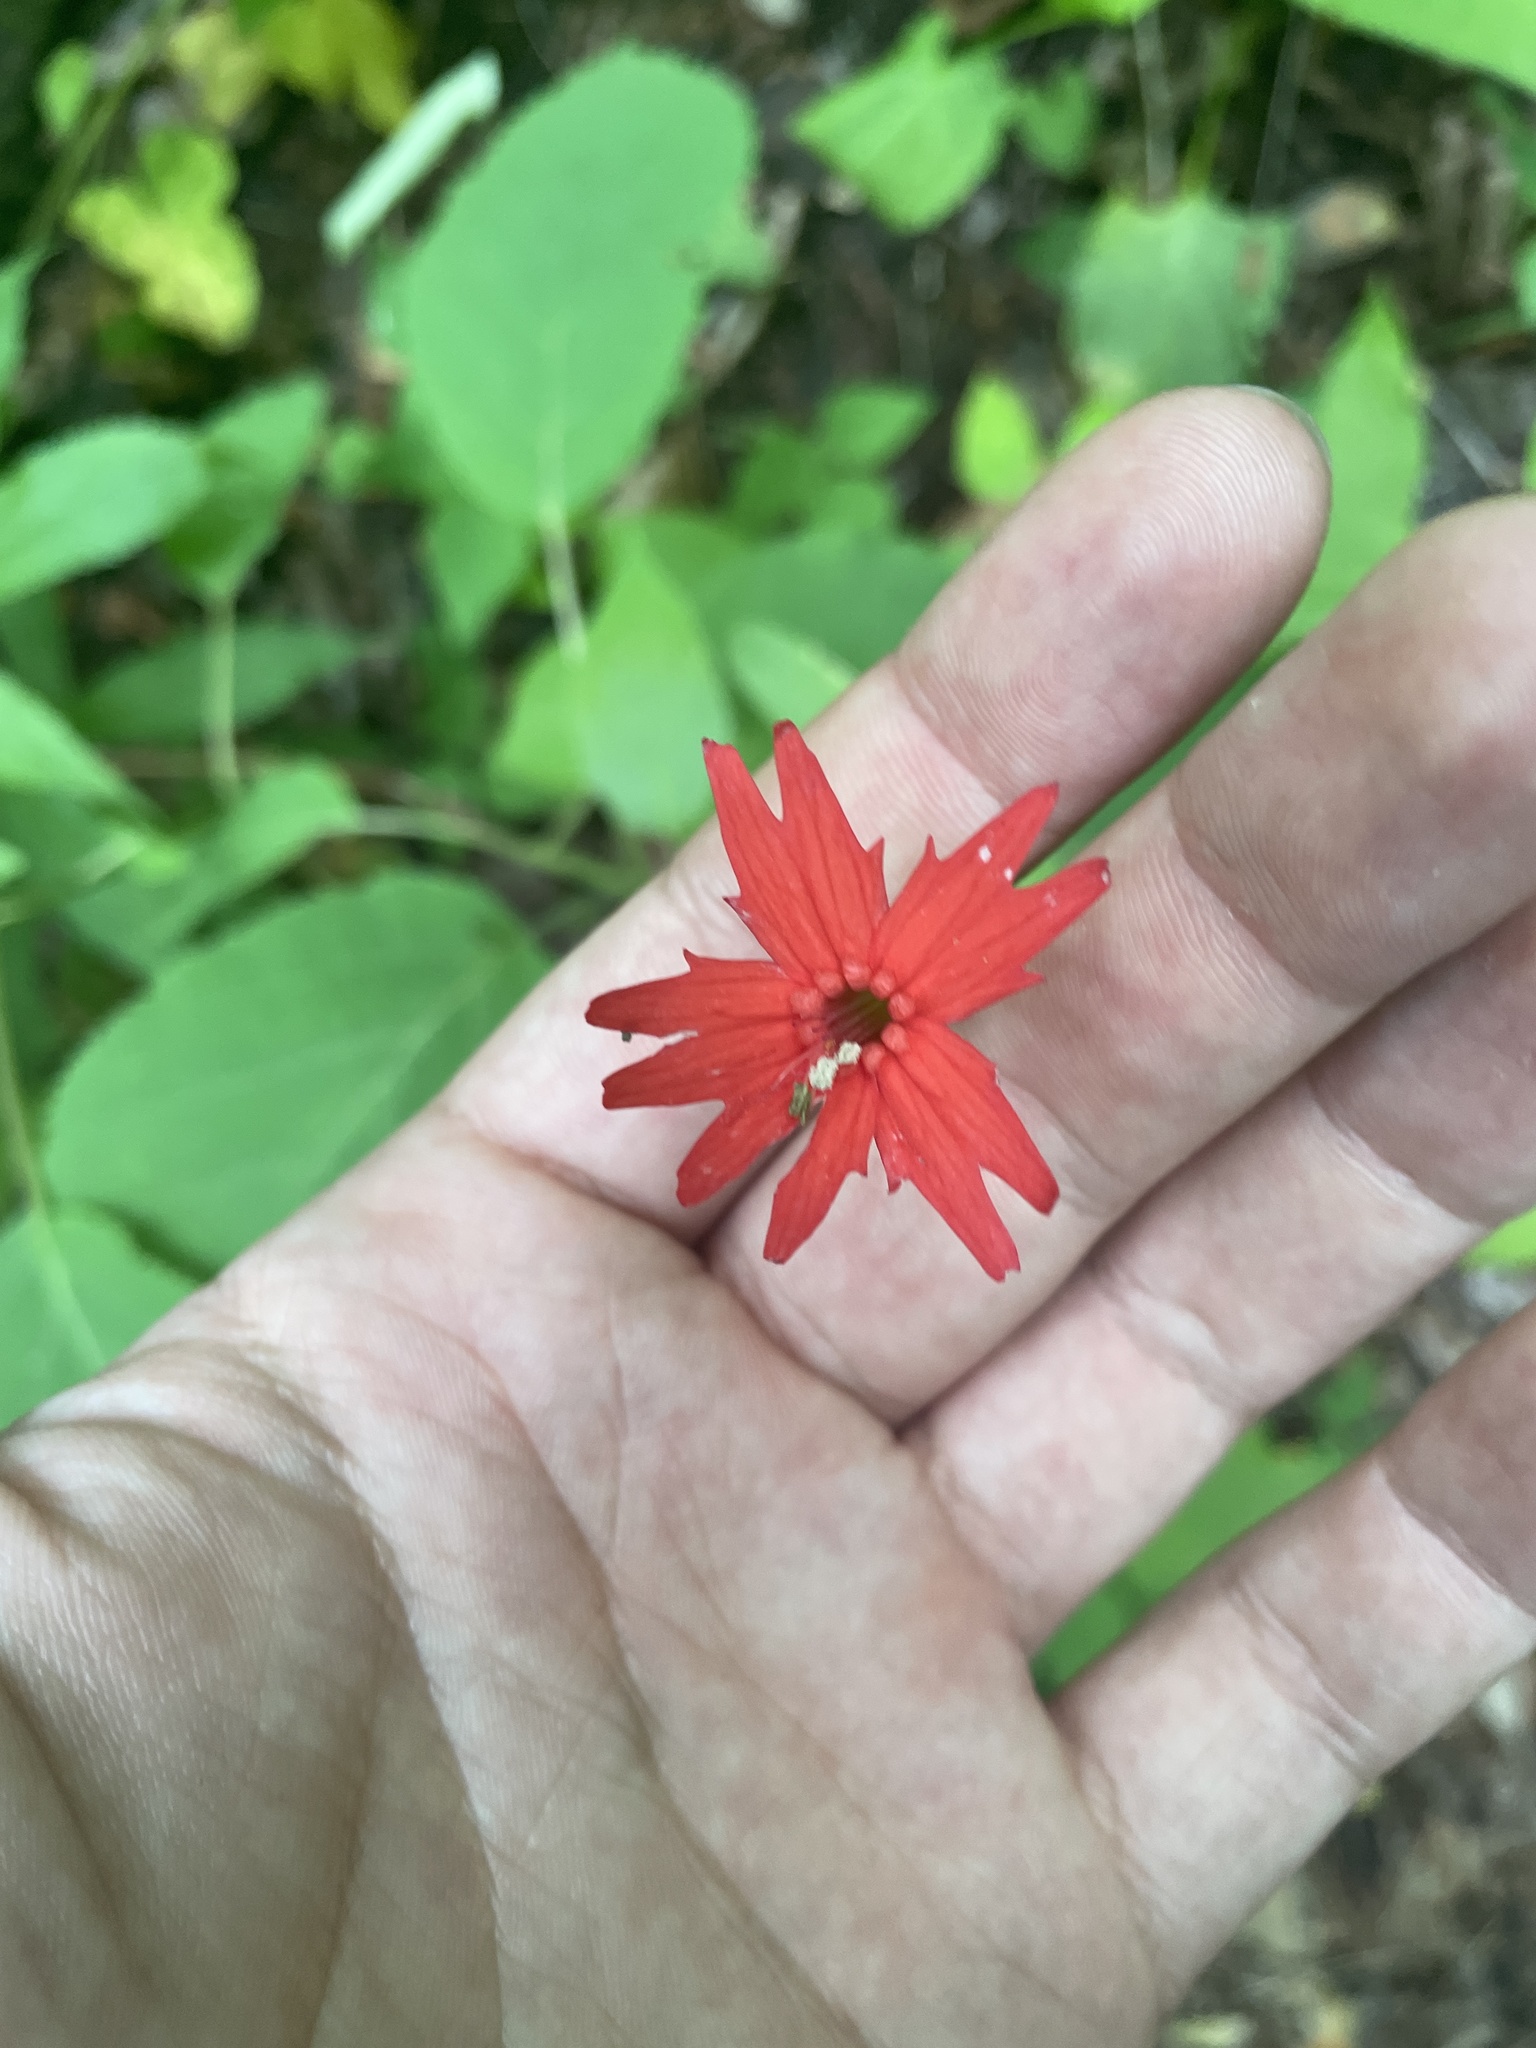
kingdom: Plantae
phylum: Tracheophyta
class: Magnoliopsida
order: Caryophyllales
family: Caryophyllaceae
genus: Silene
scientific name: Silene virginica
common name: Fire-pink
